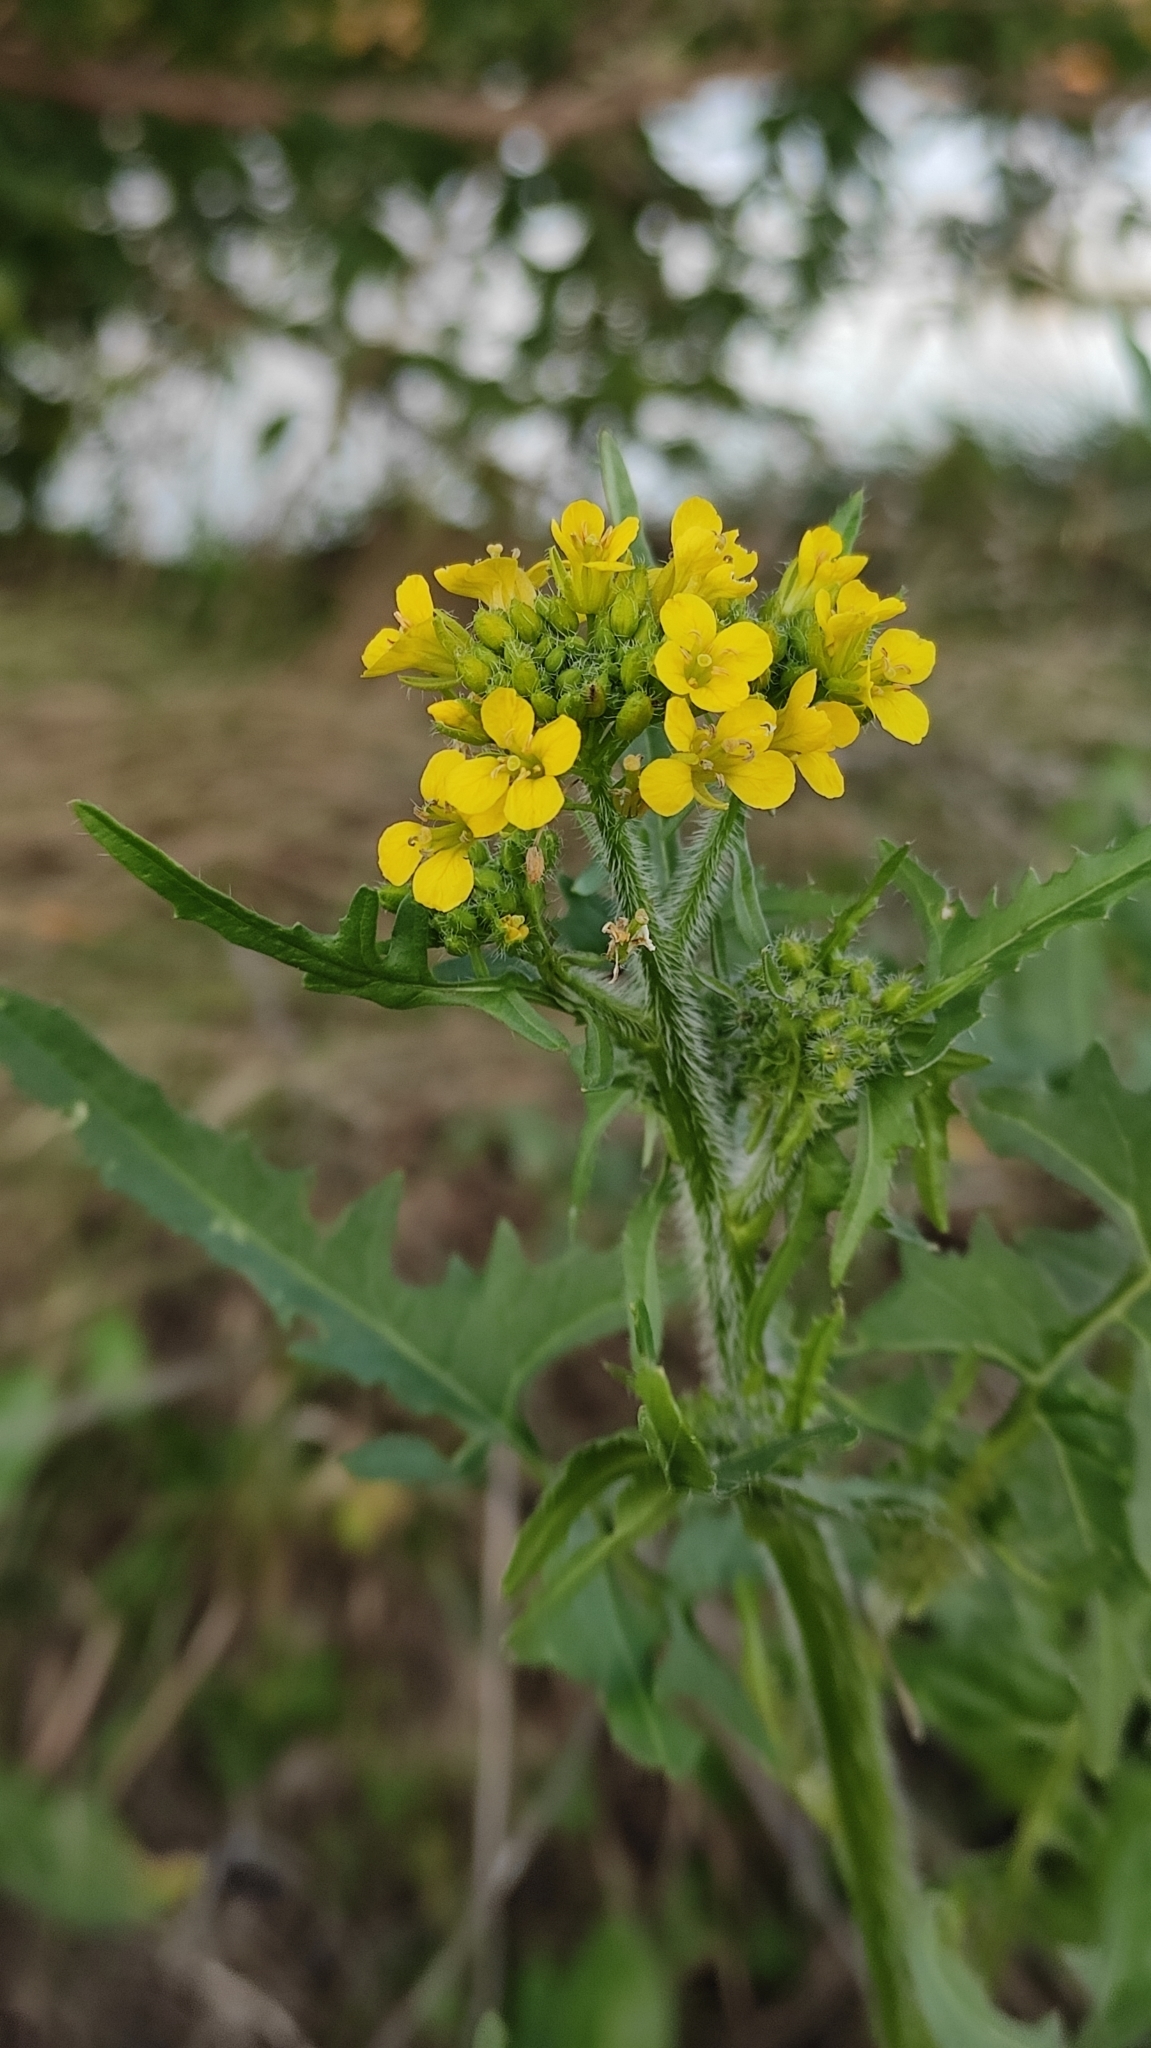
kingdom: Plantae
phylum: Tracheophyta
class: Magnoliopsida
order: Brassicales
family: Brassicaceae
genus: Sisymbrium
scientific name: Sisymbrium loeselii
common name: False london-rocket
